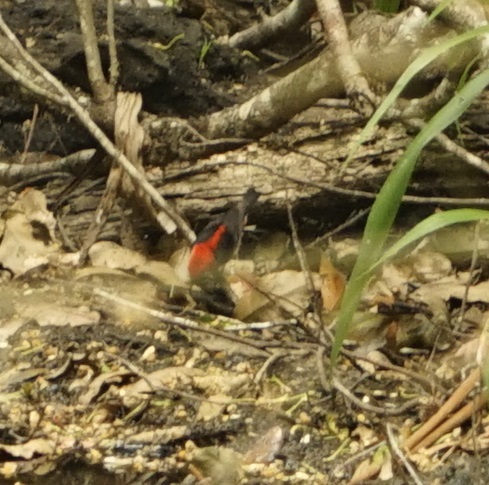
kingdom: Animalia
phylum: Chordata
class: Aves
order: Passeriformes
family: Meliphagidae
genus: Myzomela
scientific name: Myzomela sanguinolenta
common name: Scarlet myzomela
